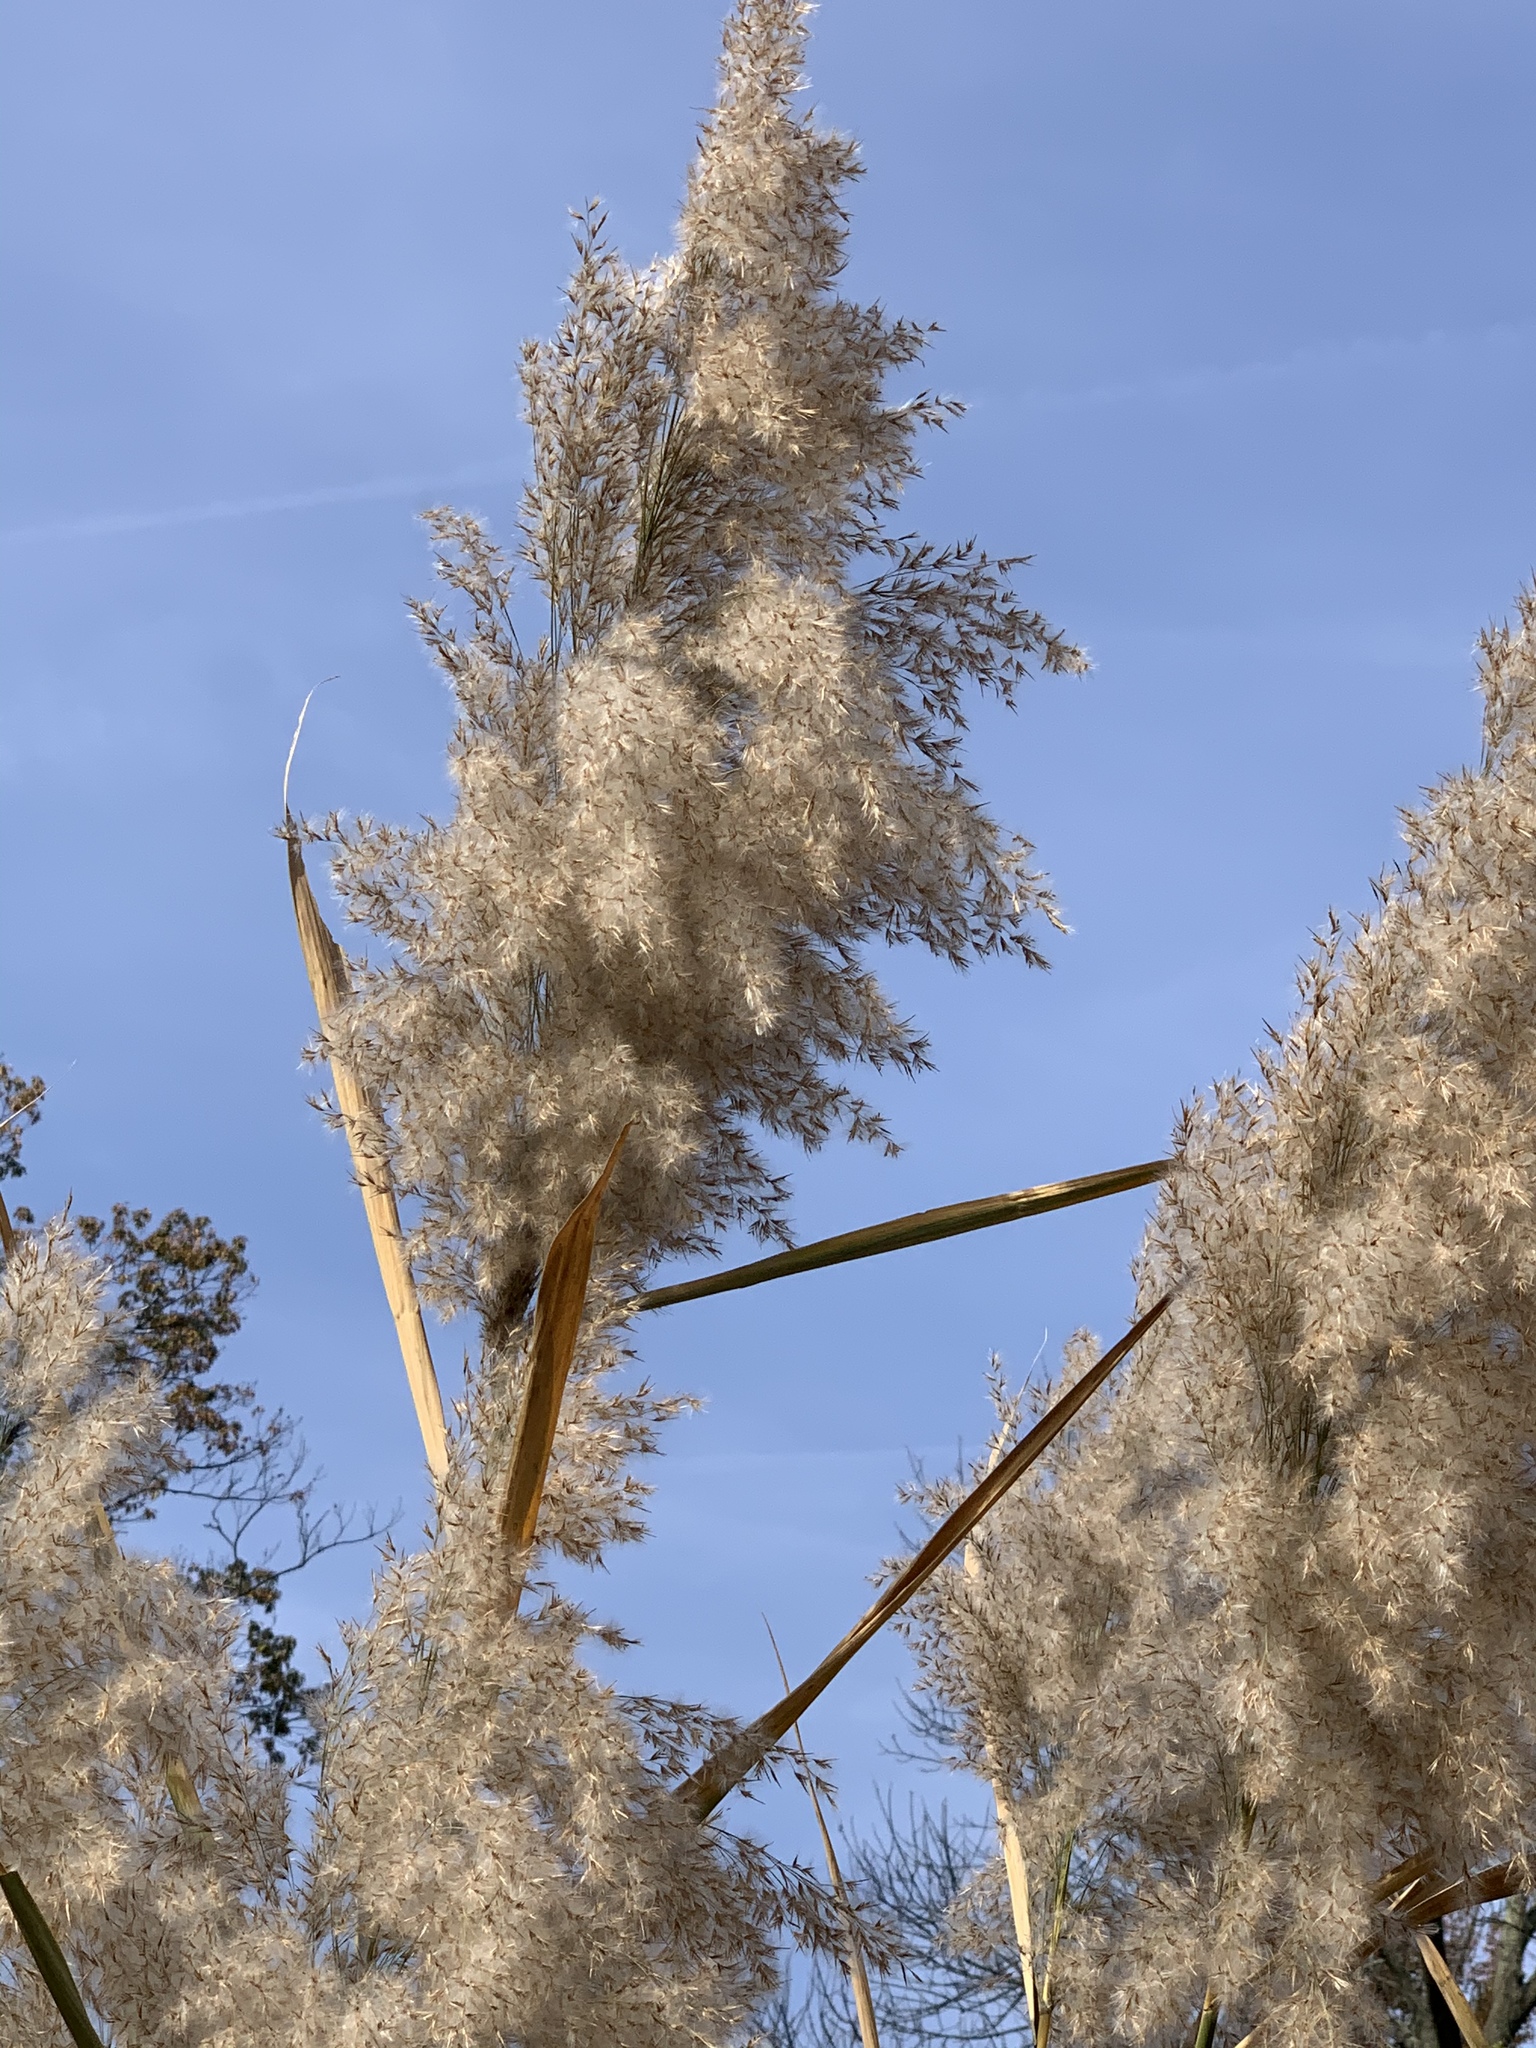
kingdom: Plantae
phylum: Tracheophyta
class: Liliopsida
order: Poales
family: Poaceae
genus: Phragmites
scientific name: Phragmites australis
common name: Common reed
